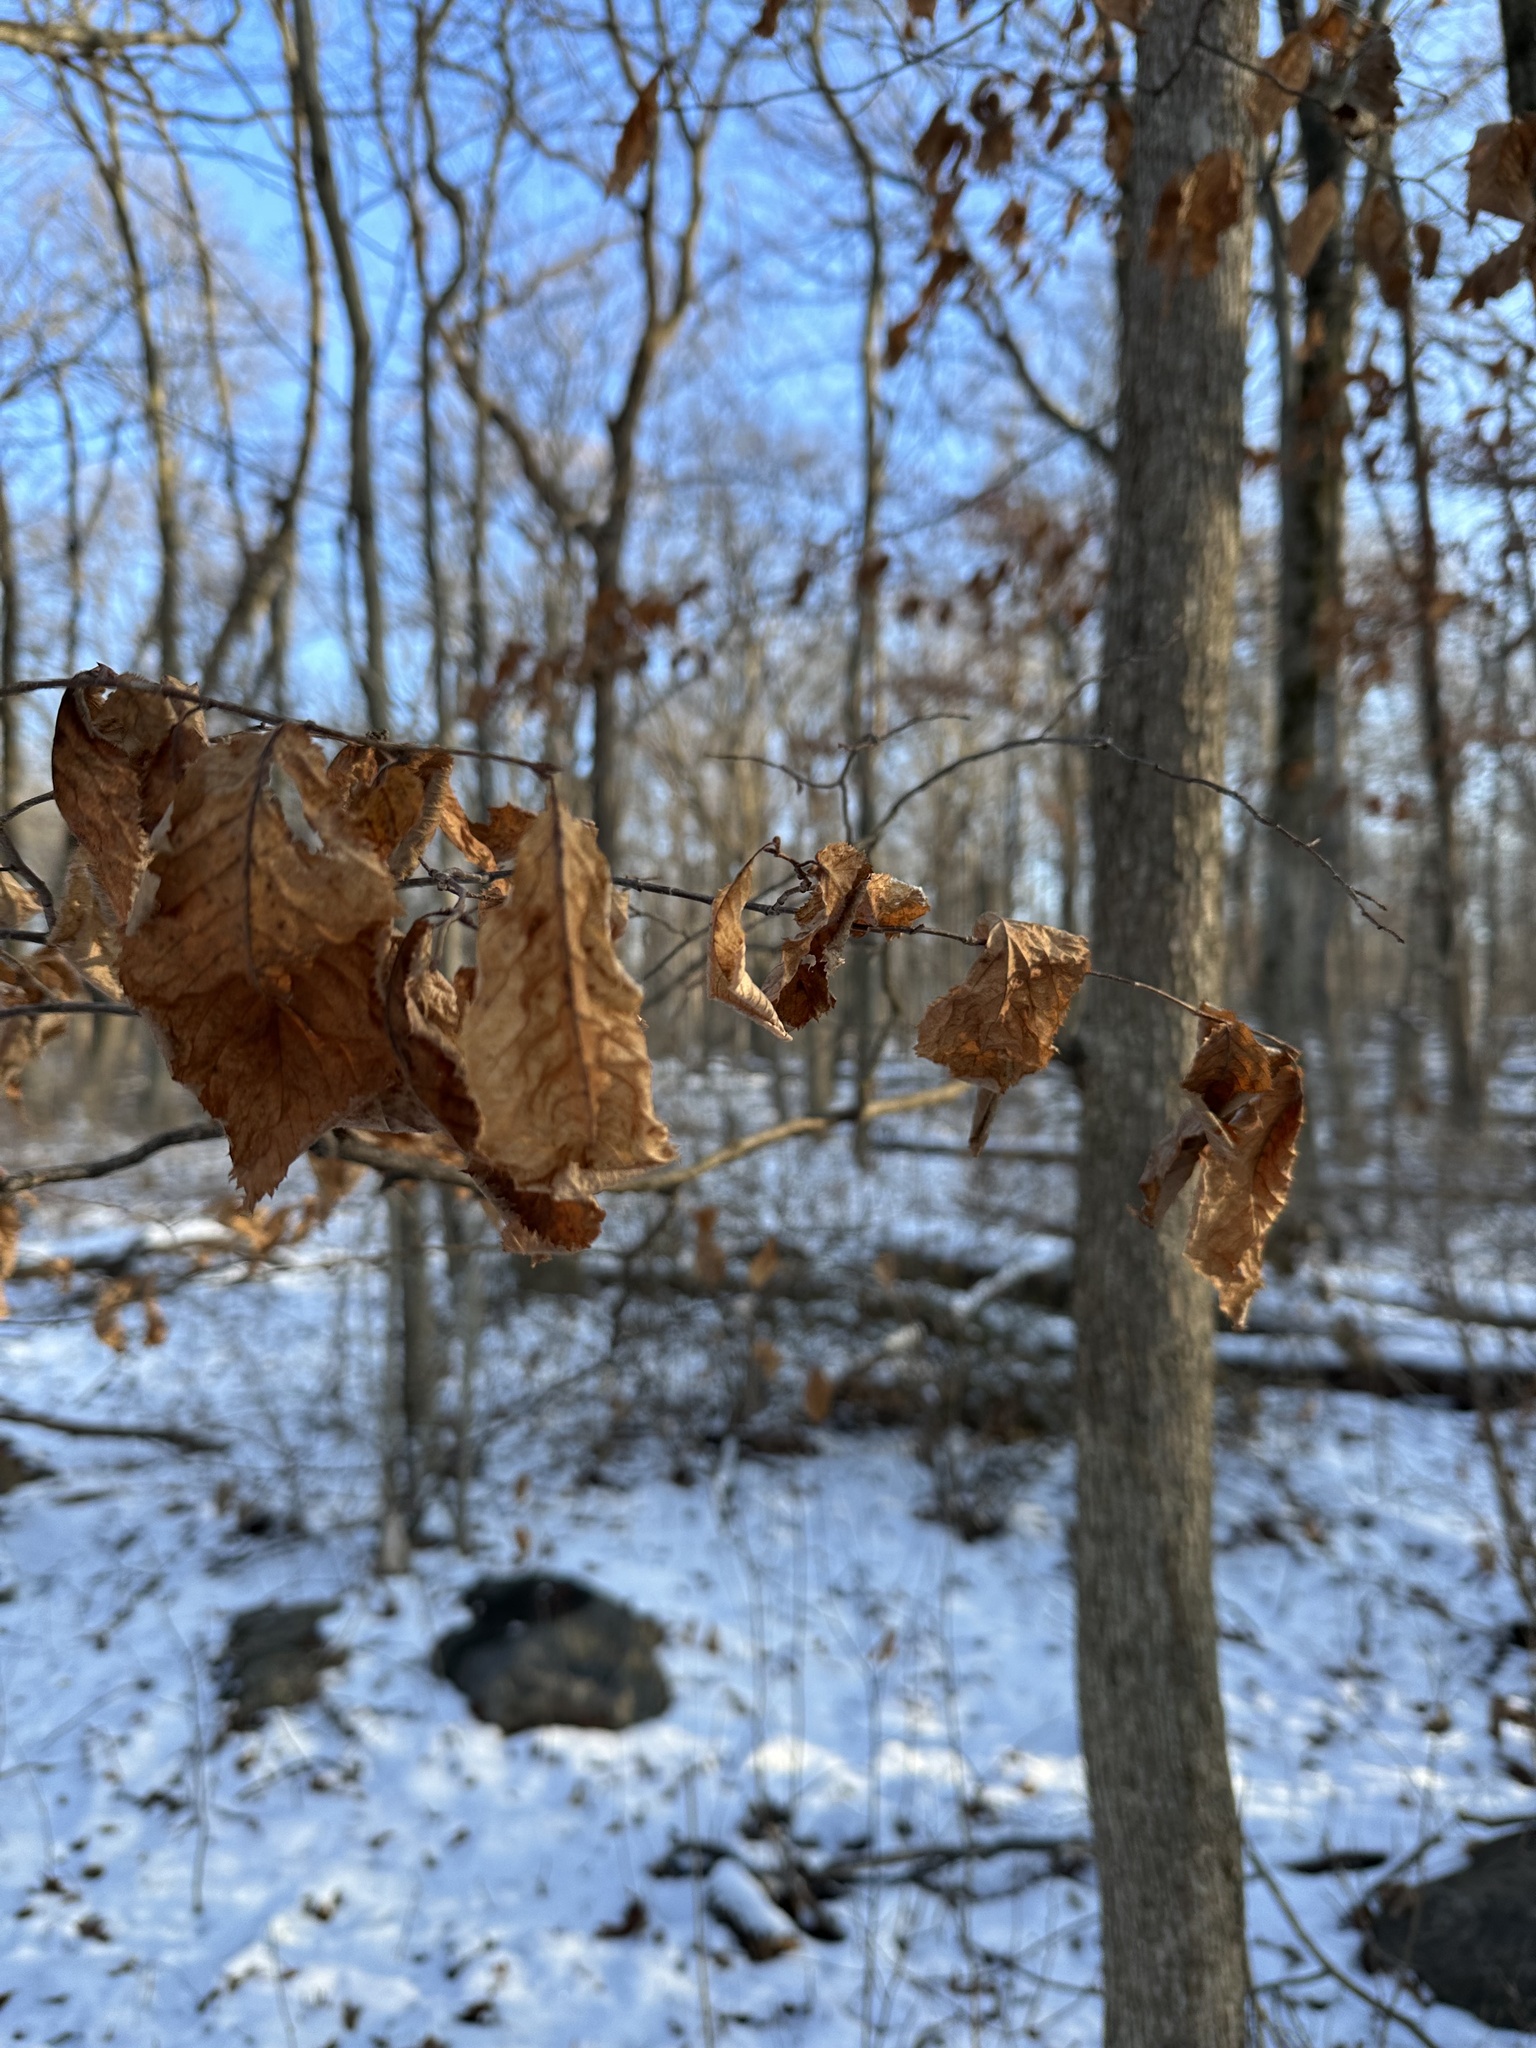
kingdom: Plantae
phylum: Tracheophyta
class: Magnoliopsida
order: Fagales
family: Betulaceae
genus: Ostrya
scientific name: Ostrya virginiana
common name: Ironwood
